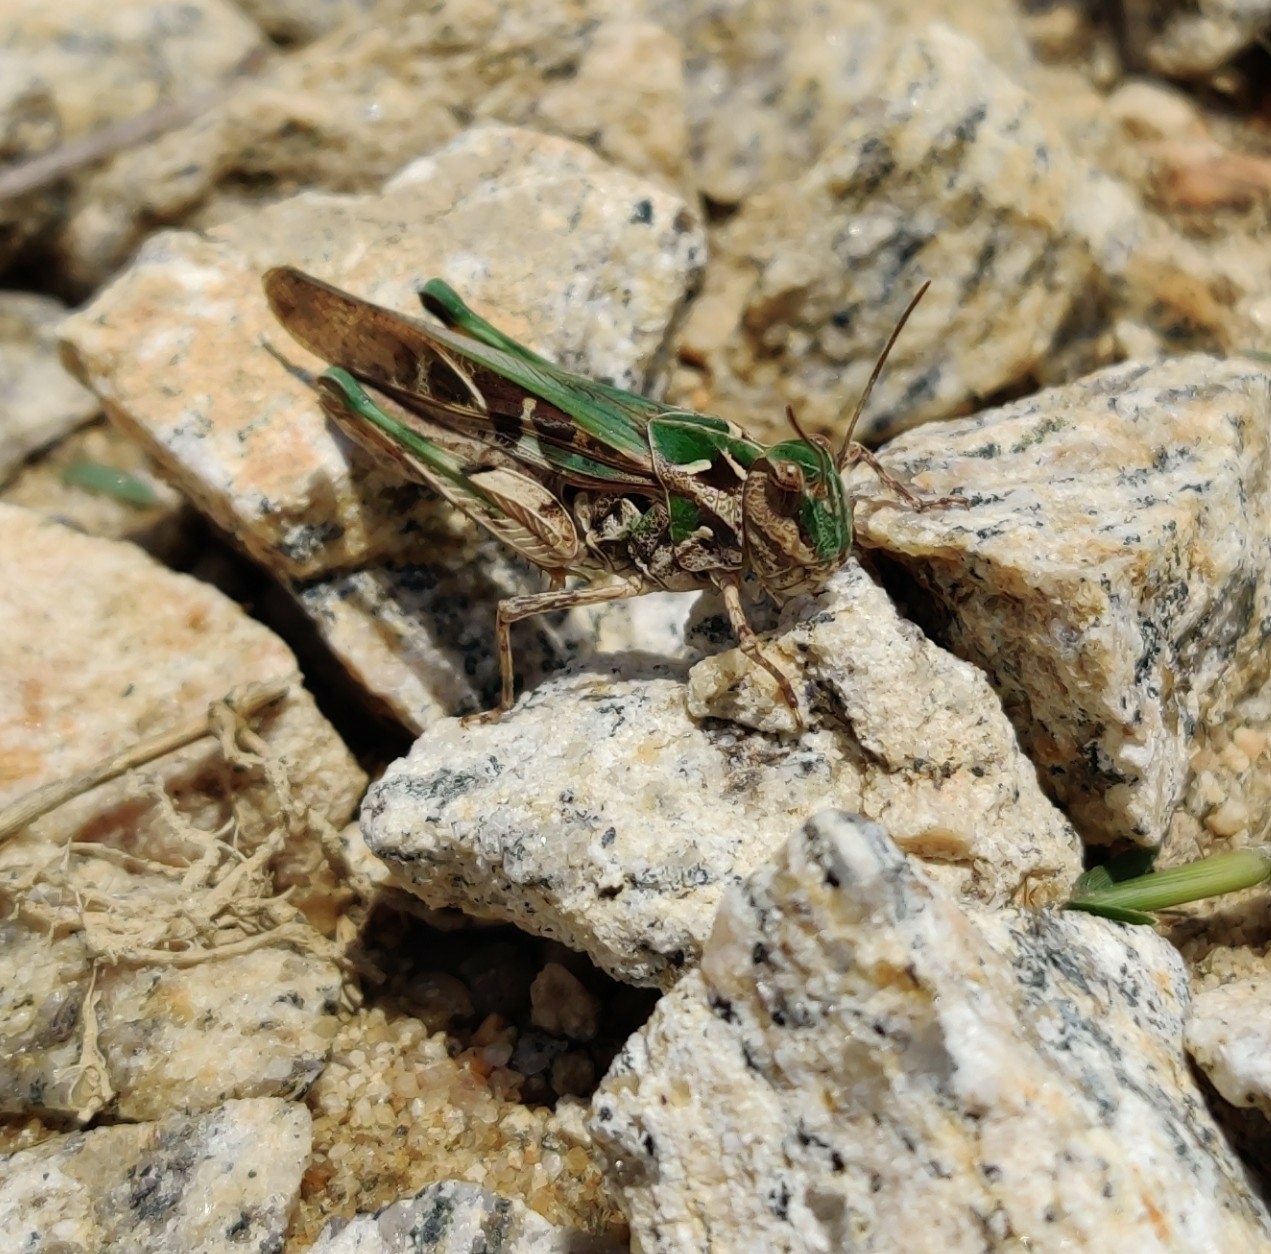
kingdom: Animalia
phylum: Arthropoda
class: Insecta
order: Orthoptera
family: Acrididae
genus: Gastrimargus
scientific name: Gastrimargus africanus
